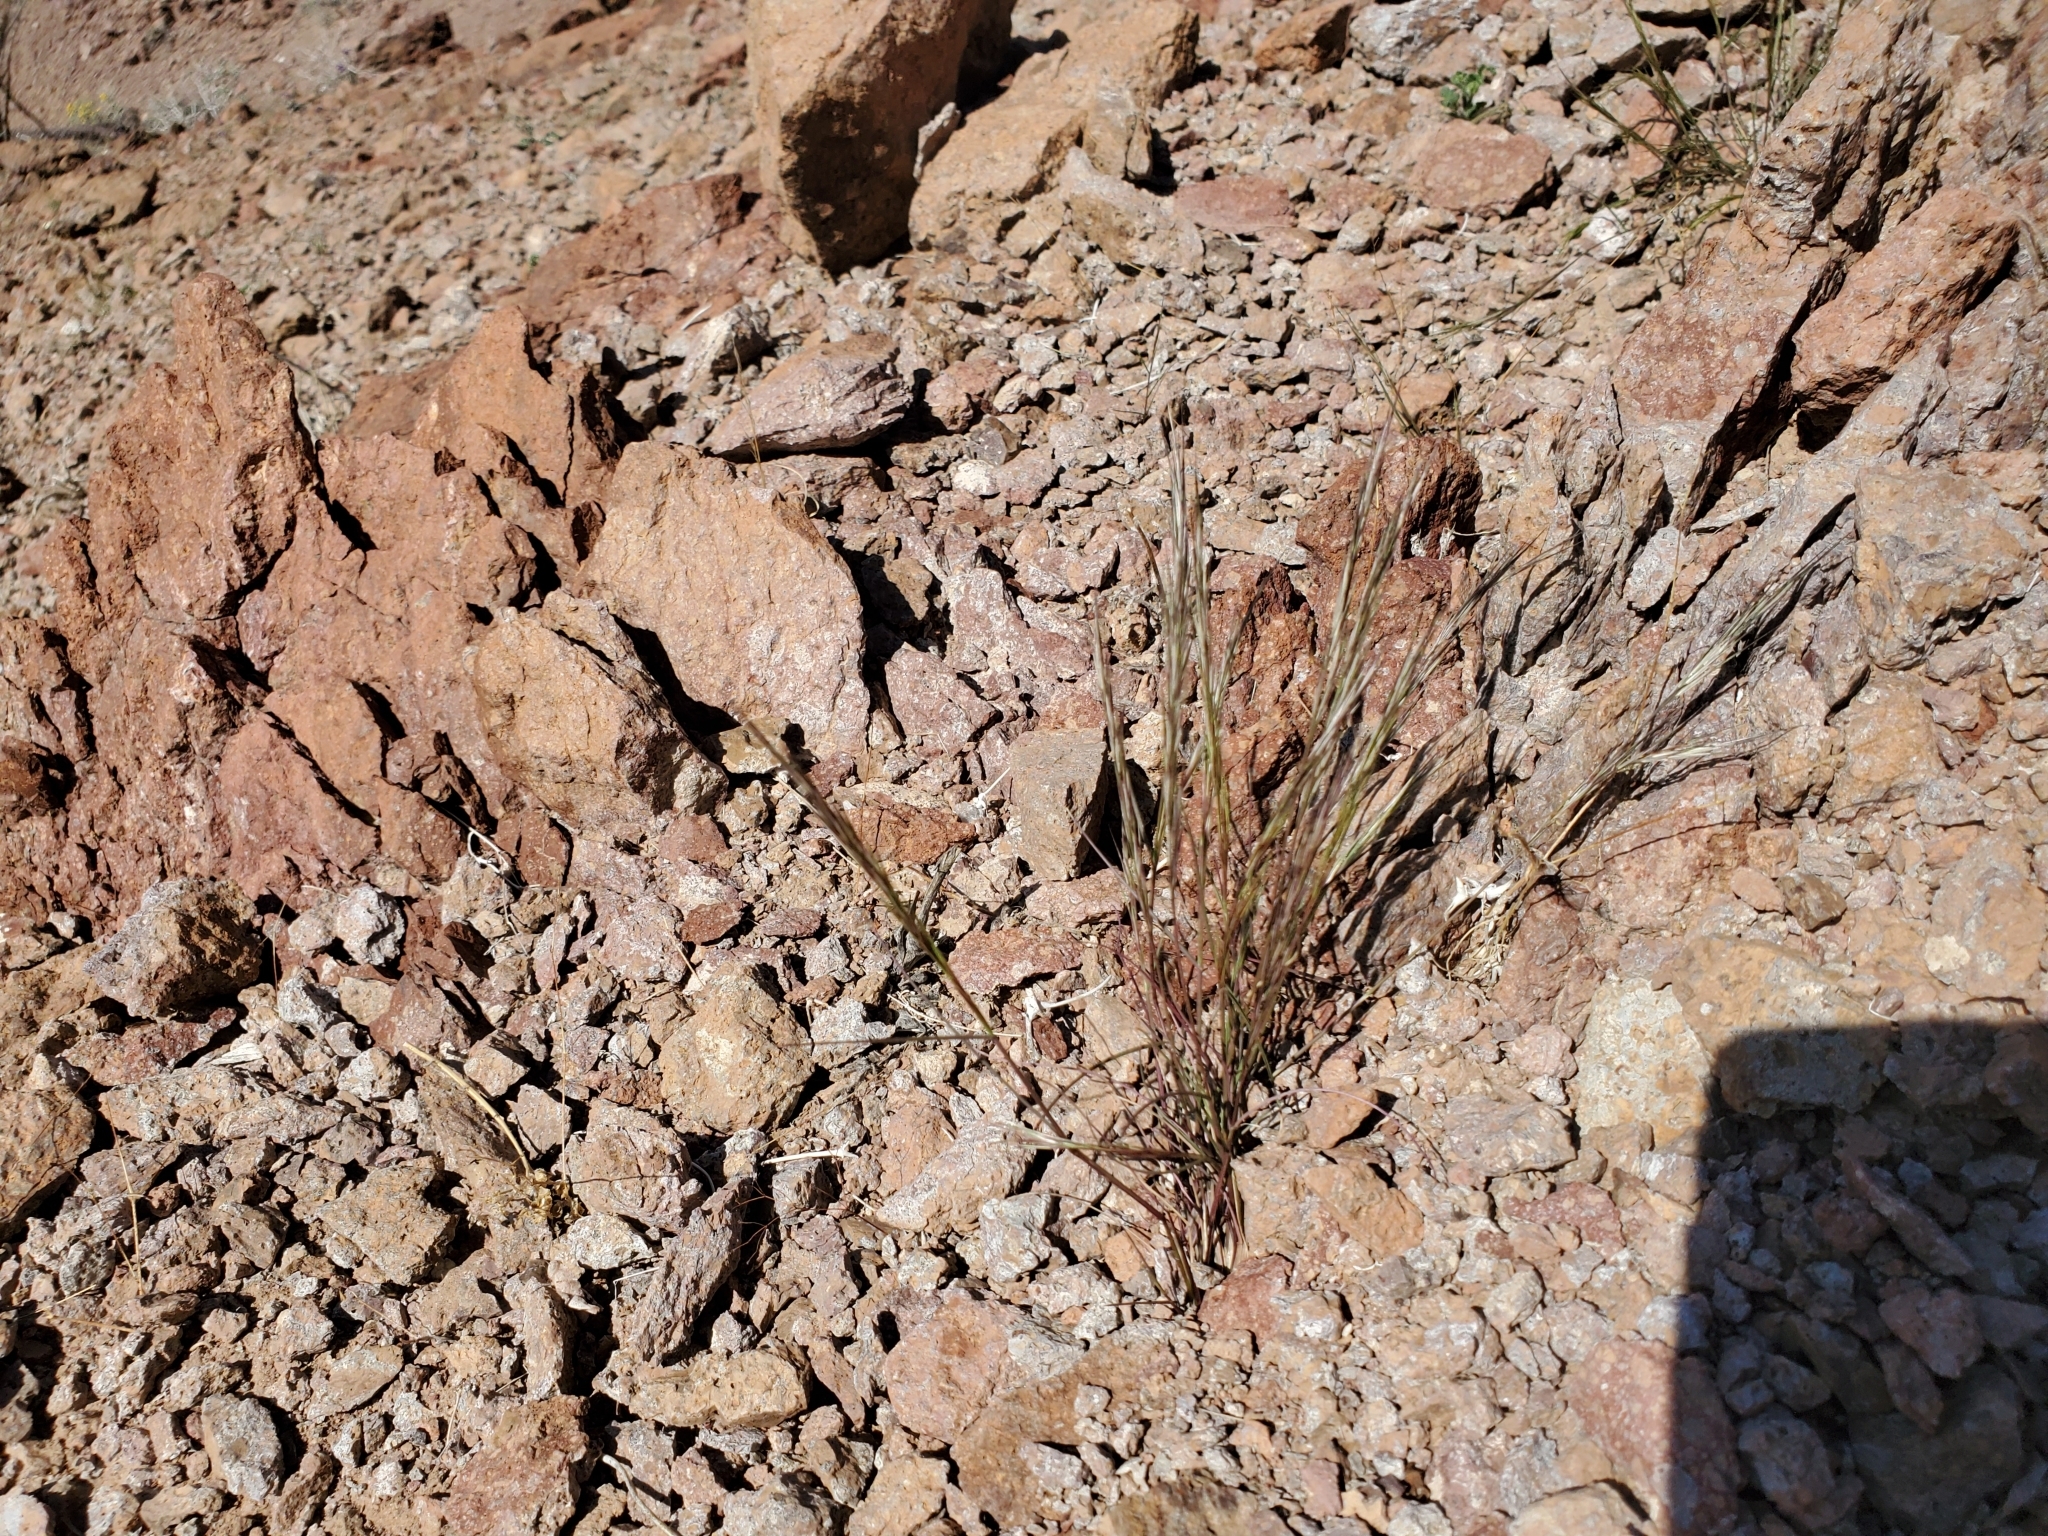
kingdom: Plantae
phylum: Tracheophyta
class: Liliopsida
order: Poales
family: Poaceae
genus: Aristida
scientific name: Aristida adscensionis
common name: Sixweeks threeawn
